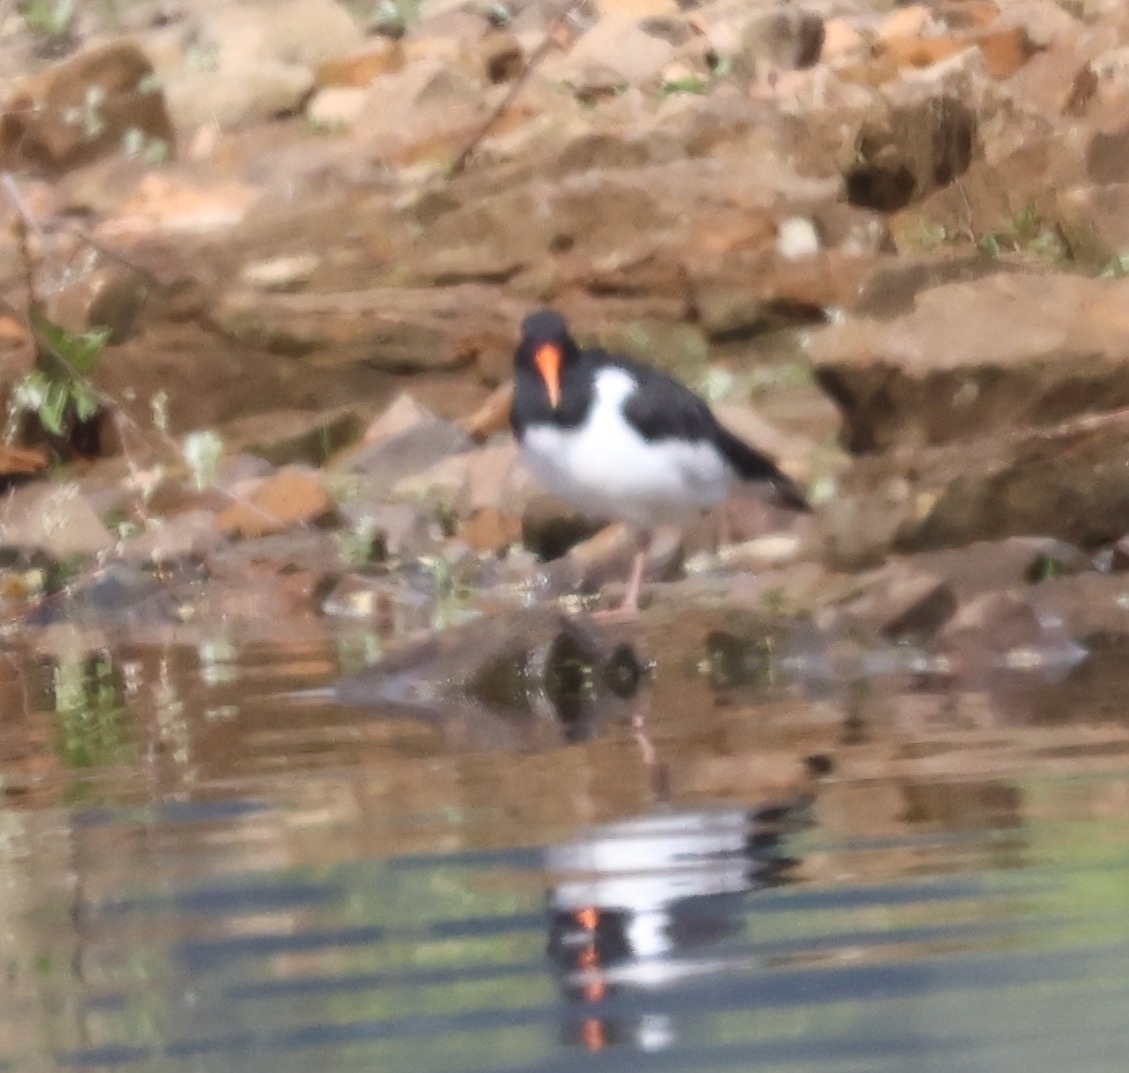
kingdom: Animalia
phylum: Chordata
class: Aves
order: Charadriiformes
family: Haematopodidae
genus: Haematopus
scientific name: Haematopus ostralegus
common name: Eurasian oystercatcher
